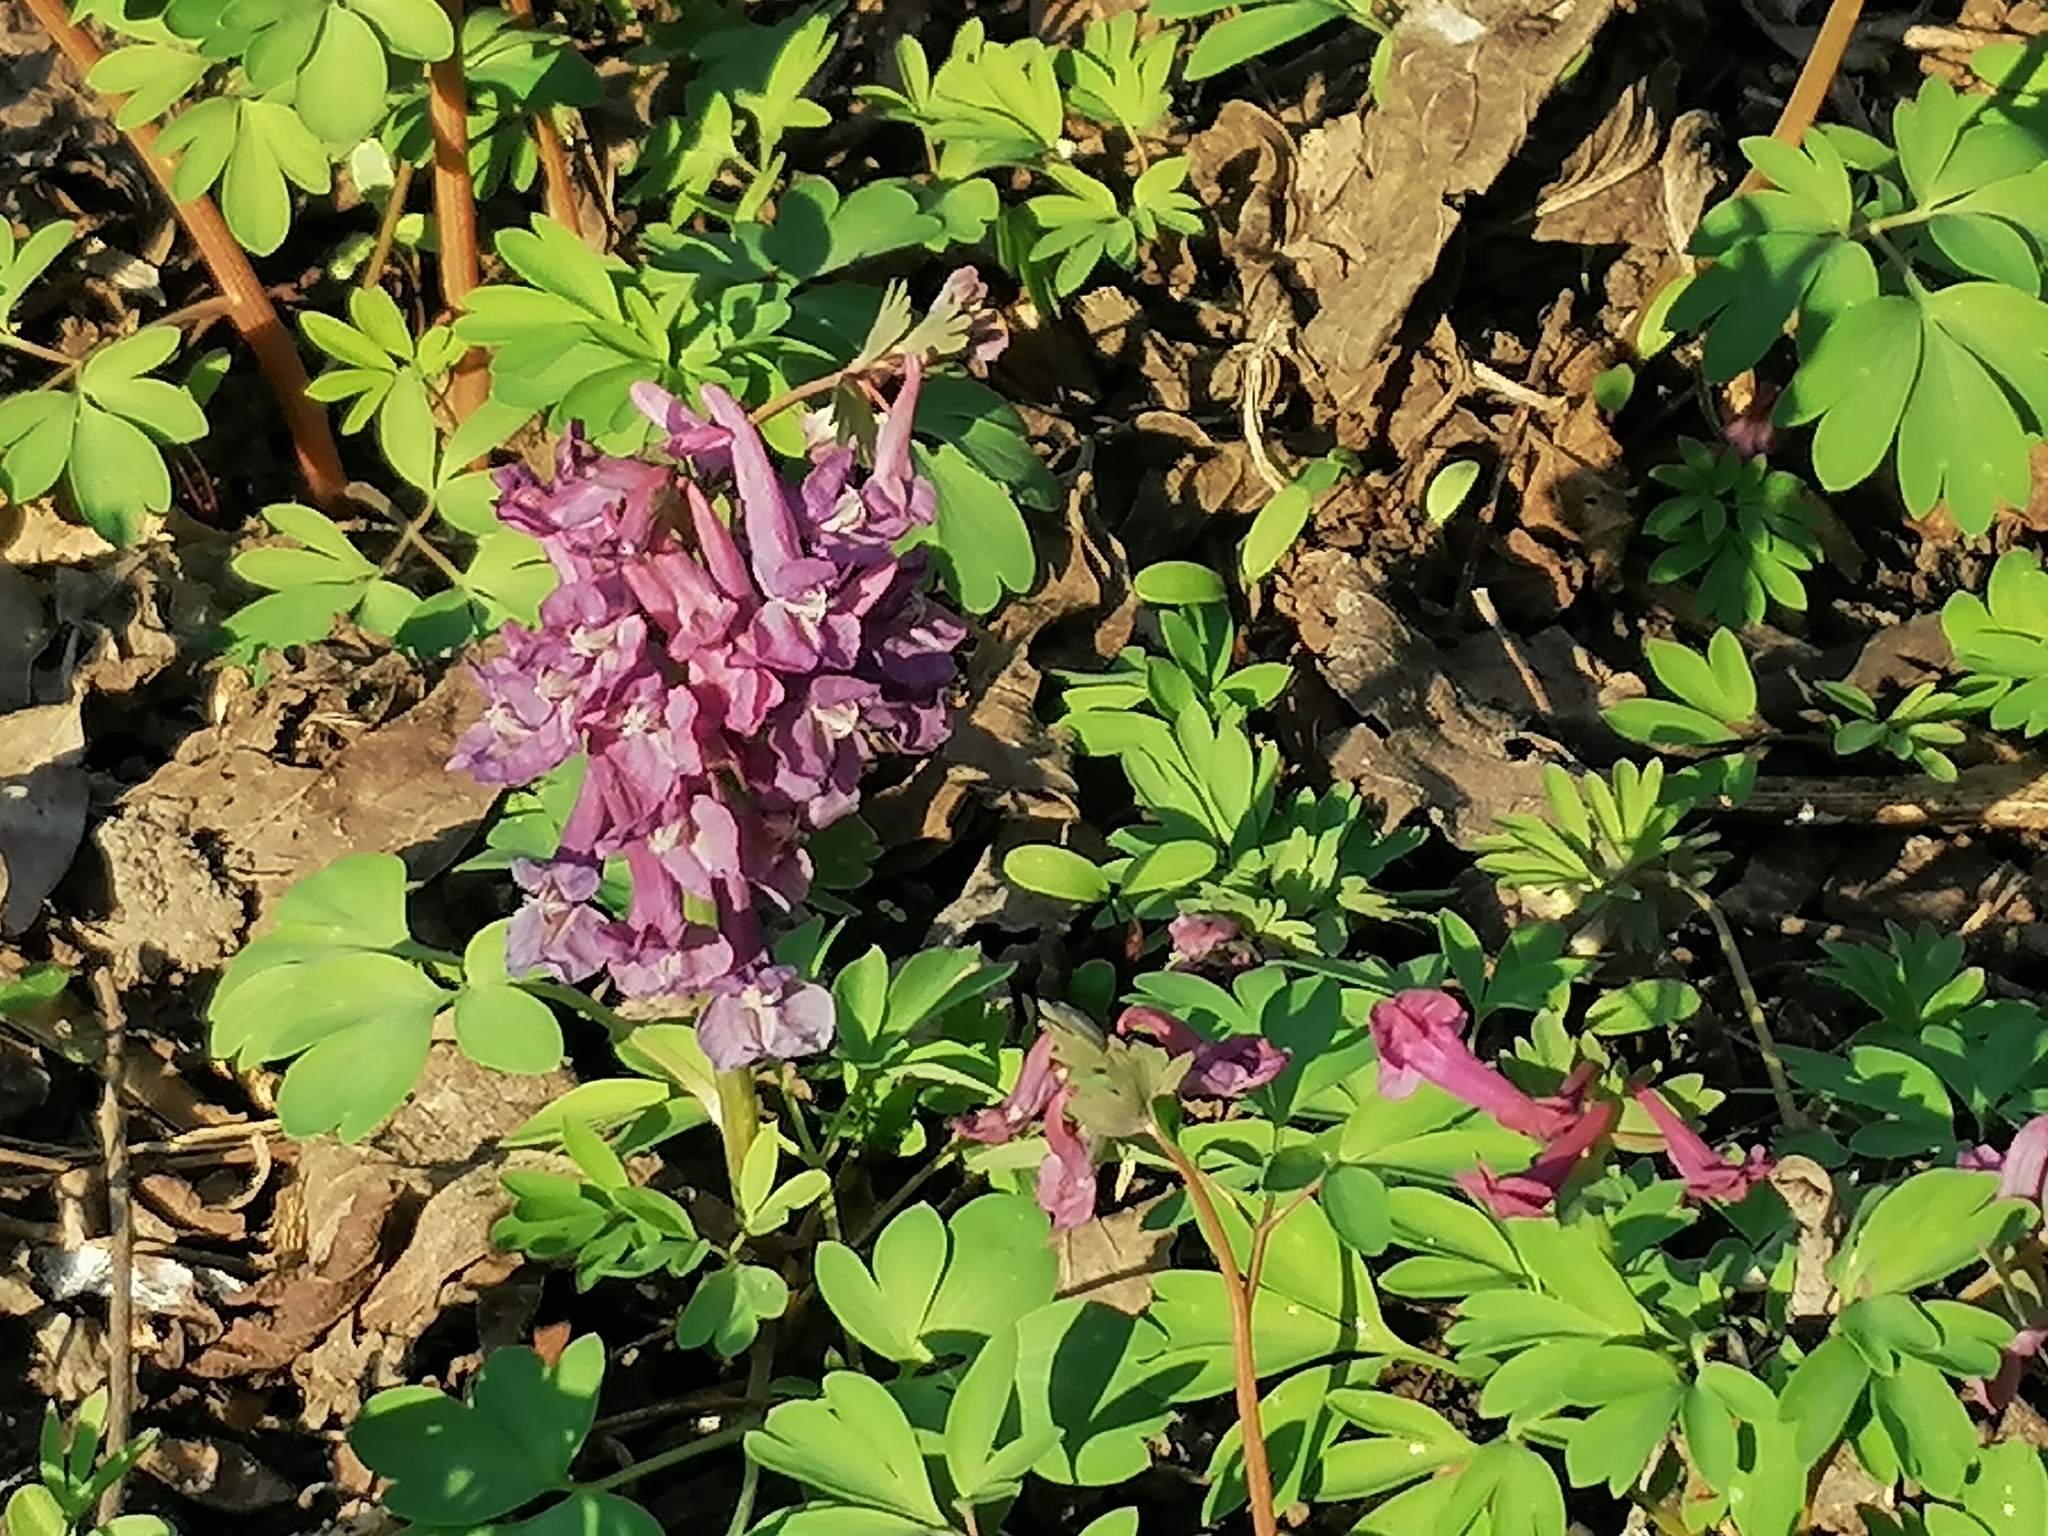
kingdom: Plantae
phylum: Tracheophyta
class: Magnoliopsida
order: Ranunculales
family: Papaveraceae
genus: Corydalis
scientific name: Corydalis solida
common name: Bird-in-a-bush
